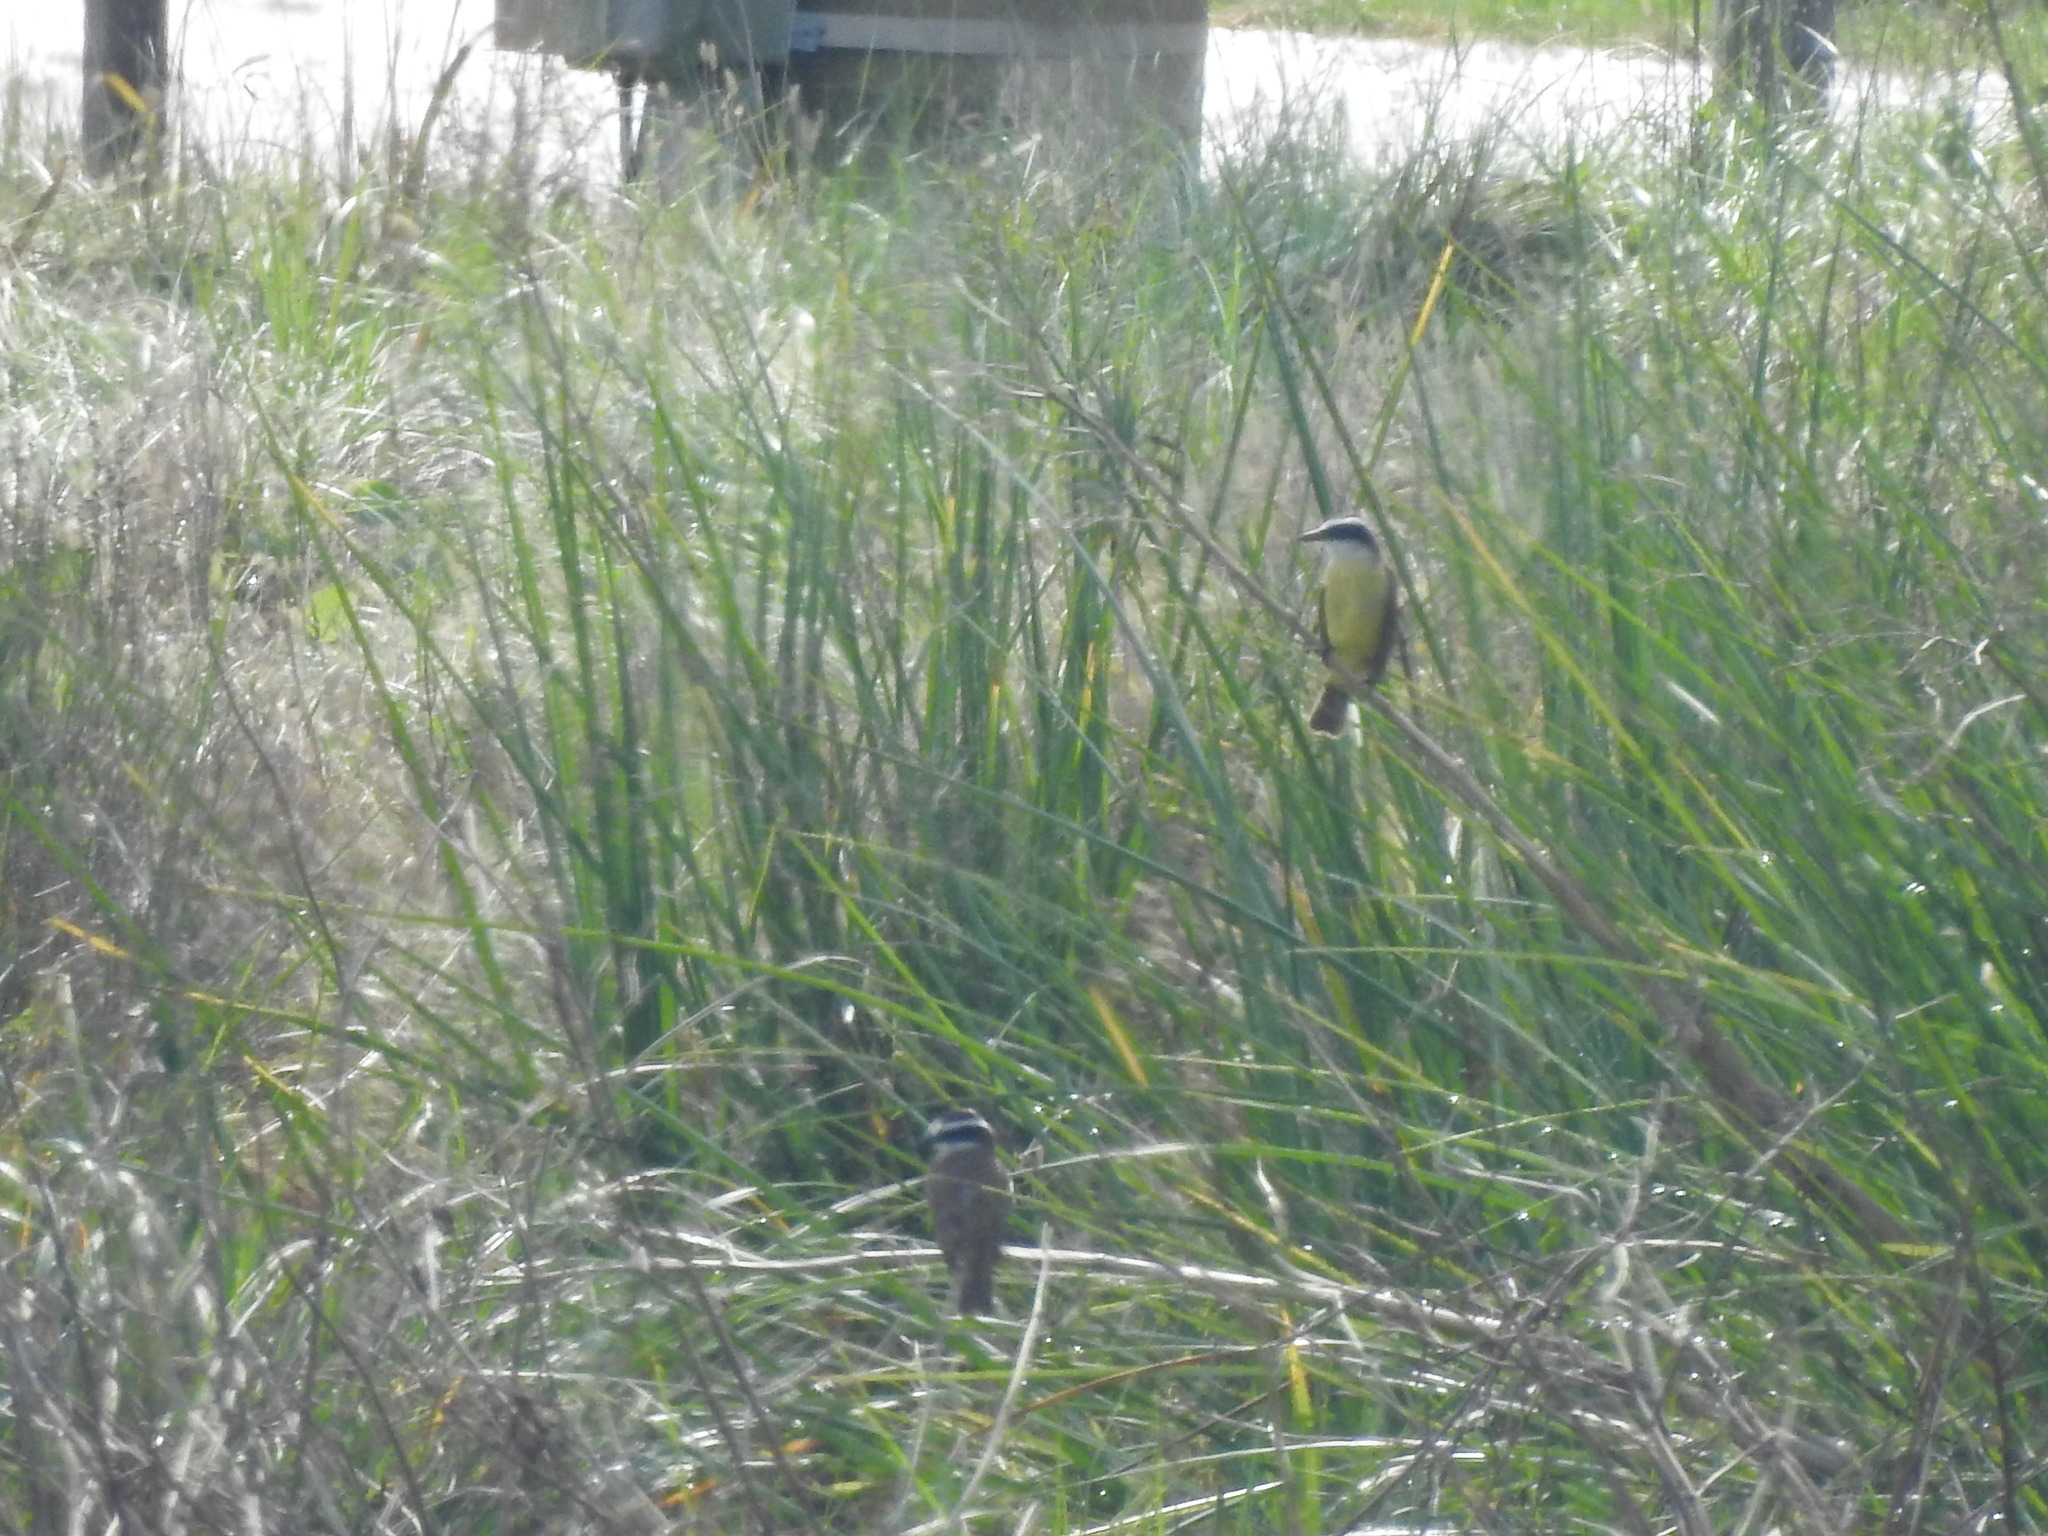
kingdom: Animalia
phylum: Chordata
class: Aves
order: Passeriformes
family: Tyrannidae
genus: Pitangus
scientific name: Pitangus sulphuratus
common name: Great kiskadee
